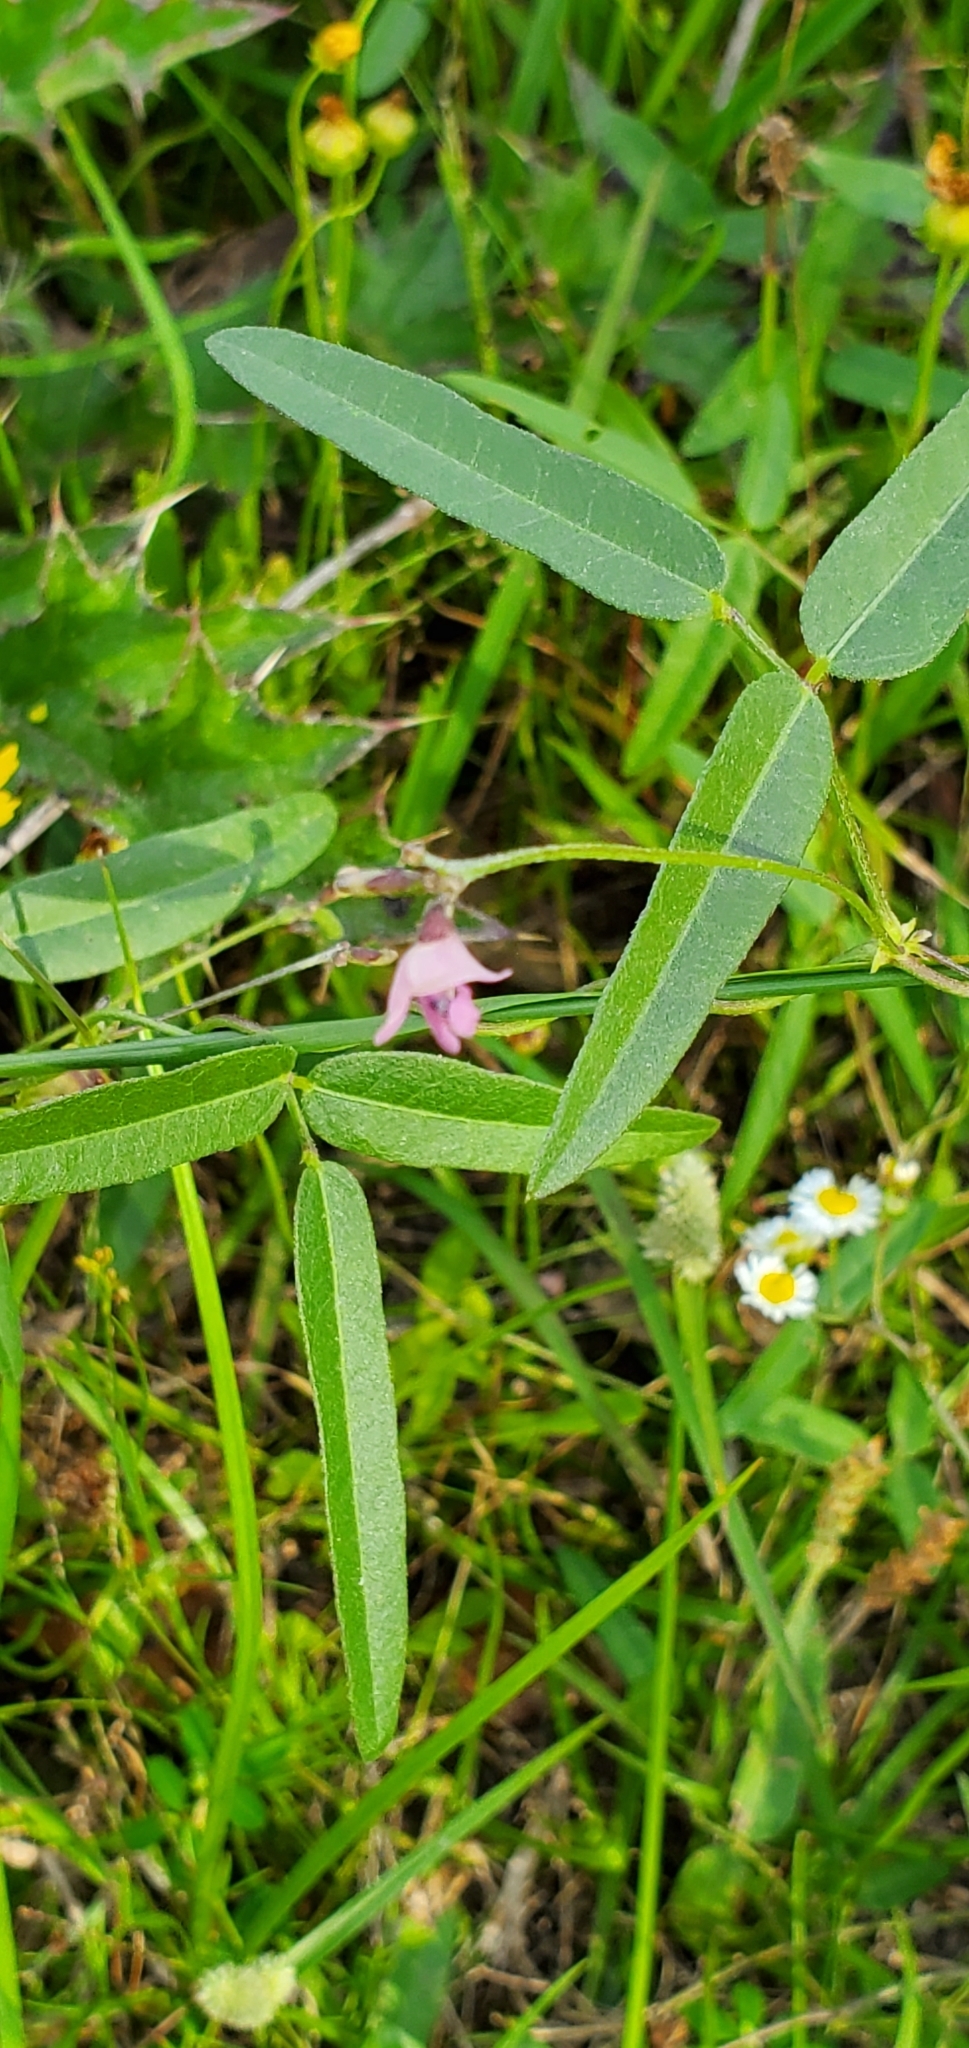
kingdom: Plantae
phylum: Tracheophyta
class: Magnoliopsida
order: Fabales
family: Fabaceae
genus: Strophostyles
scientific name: Strophostyles leiosperma
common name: Smooth-seed wild bean
